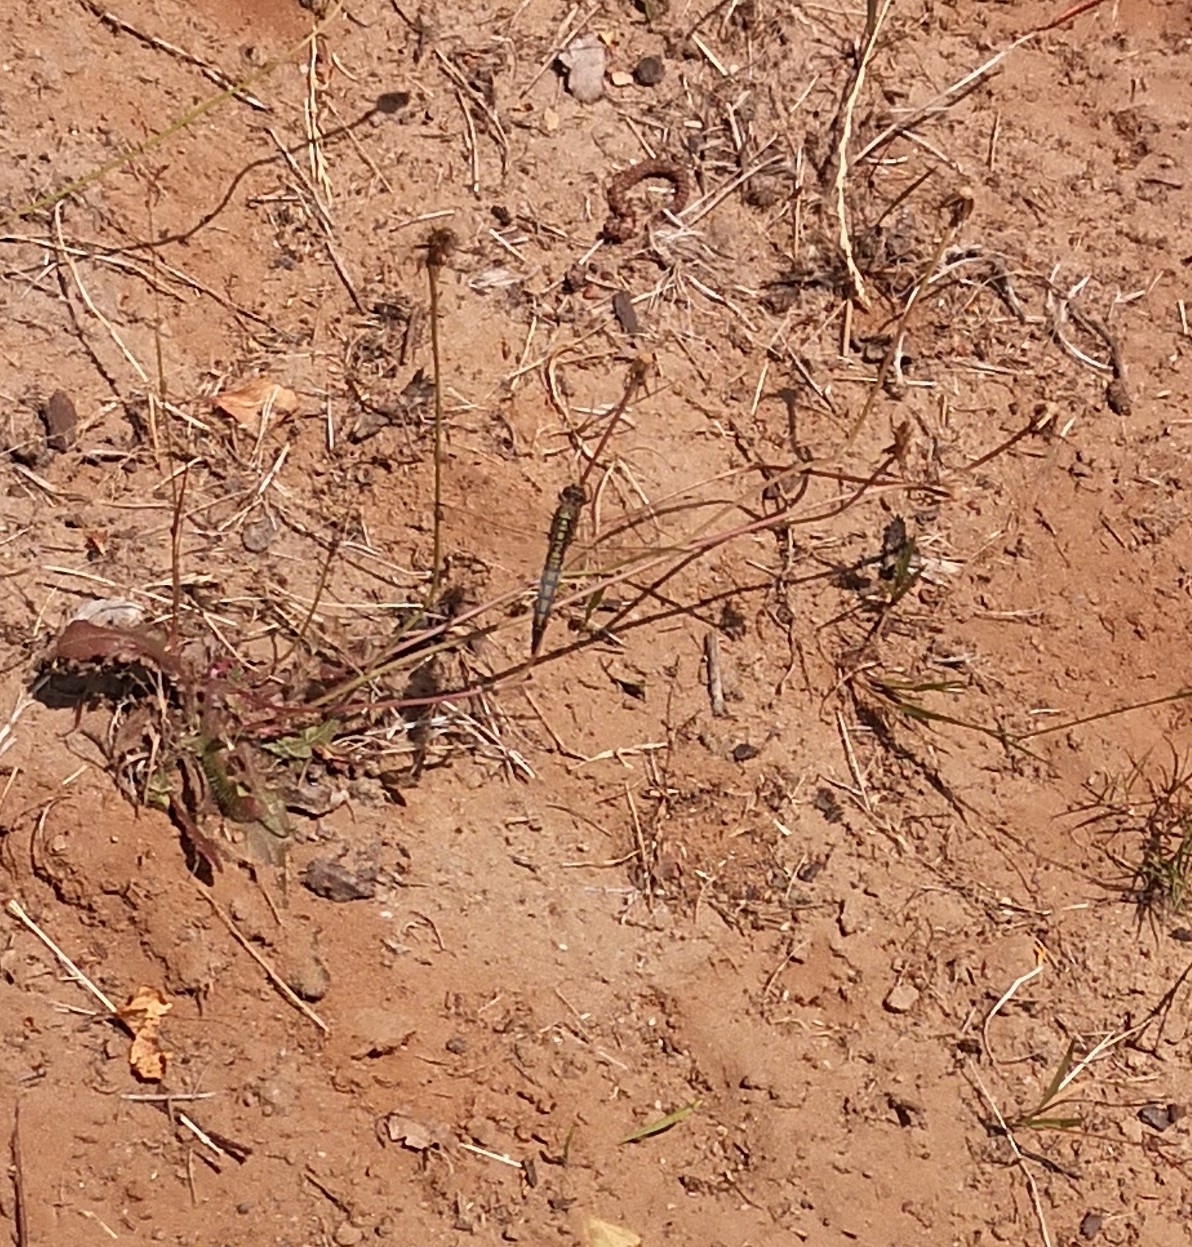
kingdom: Animalia
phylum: Arthropoda
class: Insecta
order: Odonata
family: Libellulidae
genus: Orthetrum
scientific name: Orthetrum cancellatum
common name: Black-tailed skimmer
